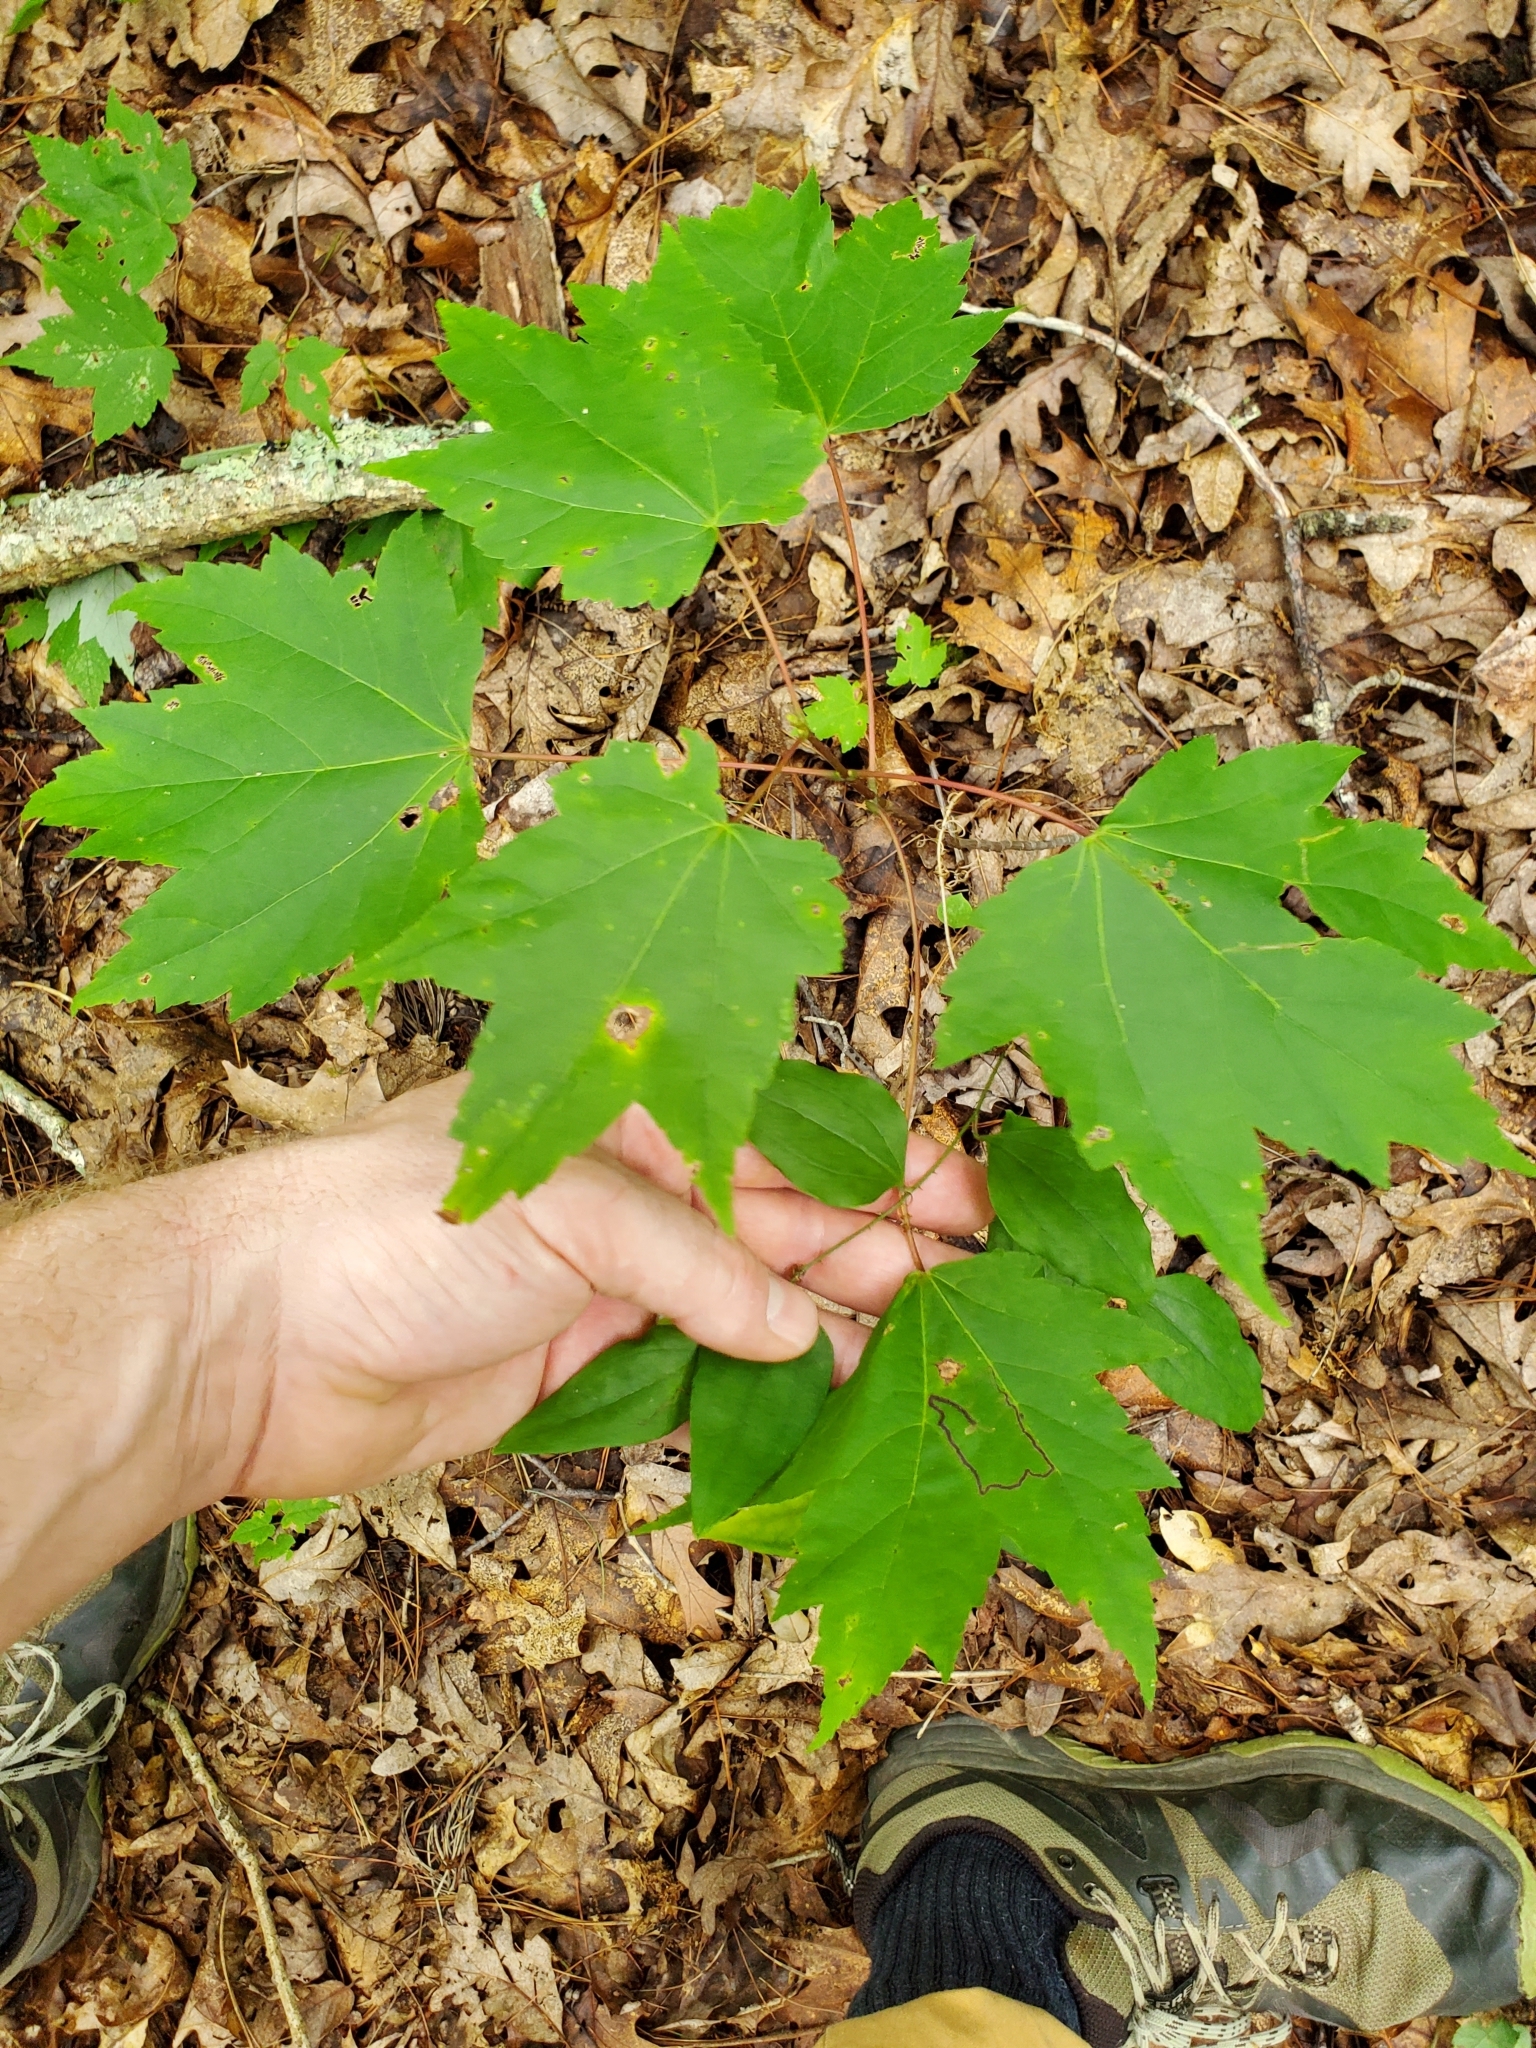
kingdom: Animalia
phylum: Arthropoda
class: Insecta
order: Lepidoptera
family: Nepticulidae
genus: Glaucolepis
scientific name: Glaucolepis saccharella
